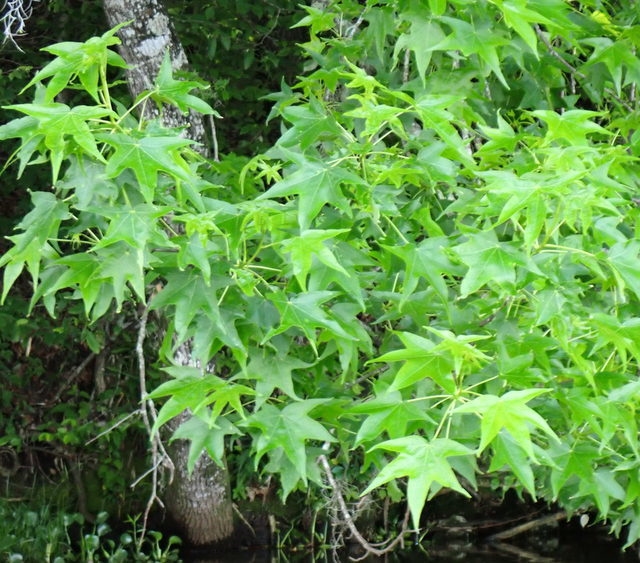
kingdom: Plantae
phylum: Tracheophyta
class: Magnoliopsida
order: Saxifragales
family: Altingiaceae
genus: Liquidambar
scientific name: Liquidambar styraciflua
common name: Sweet gum
